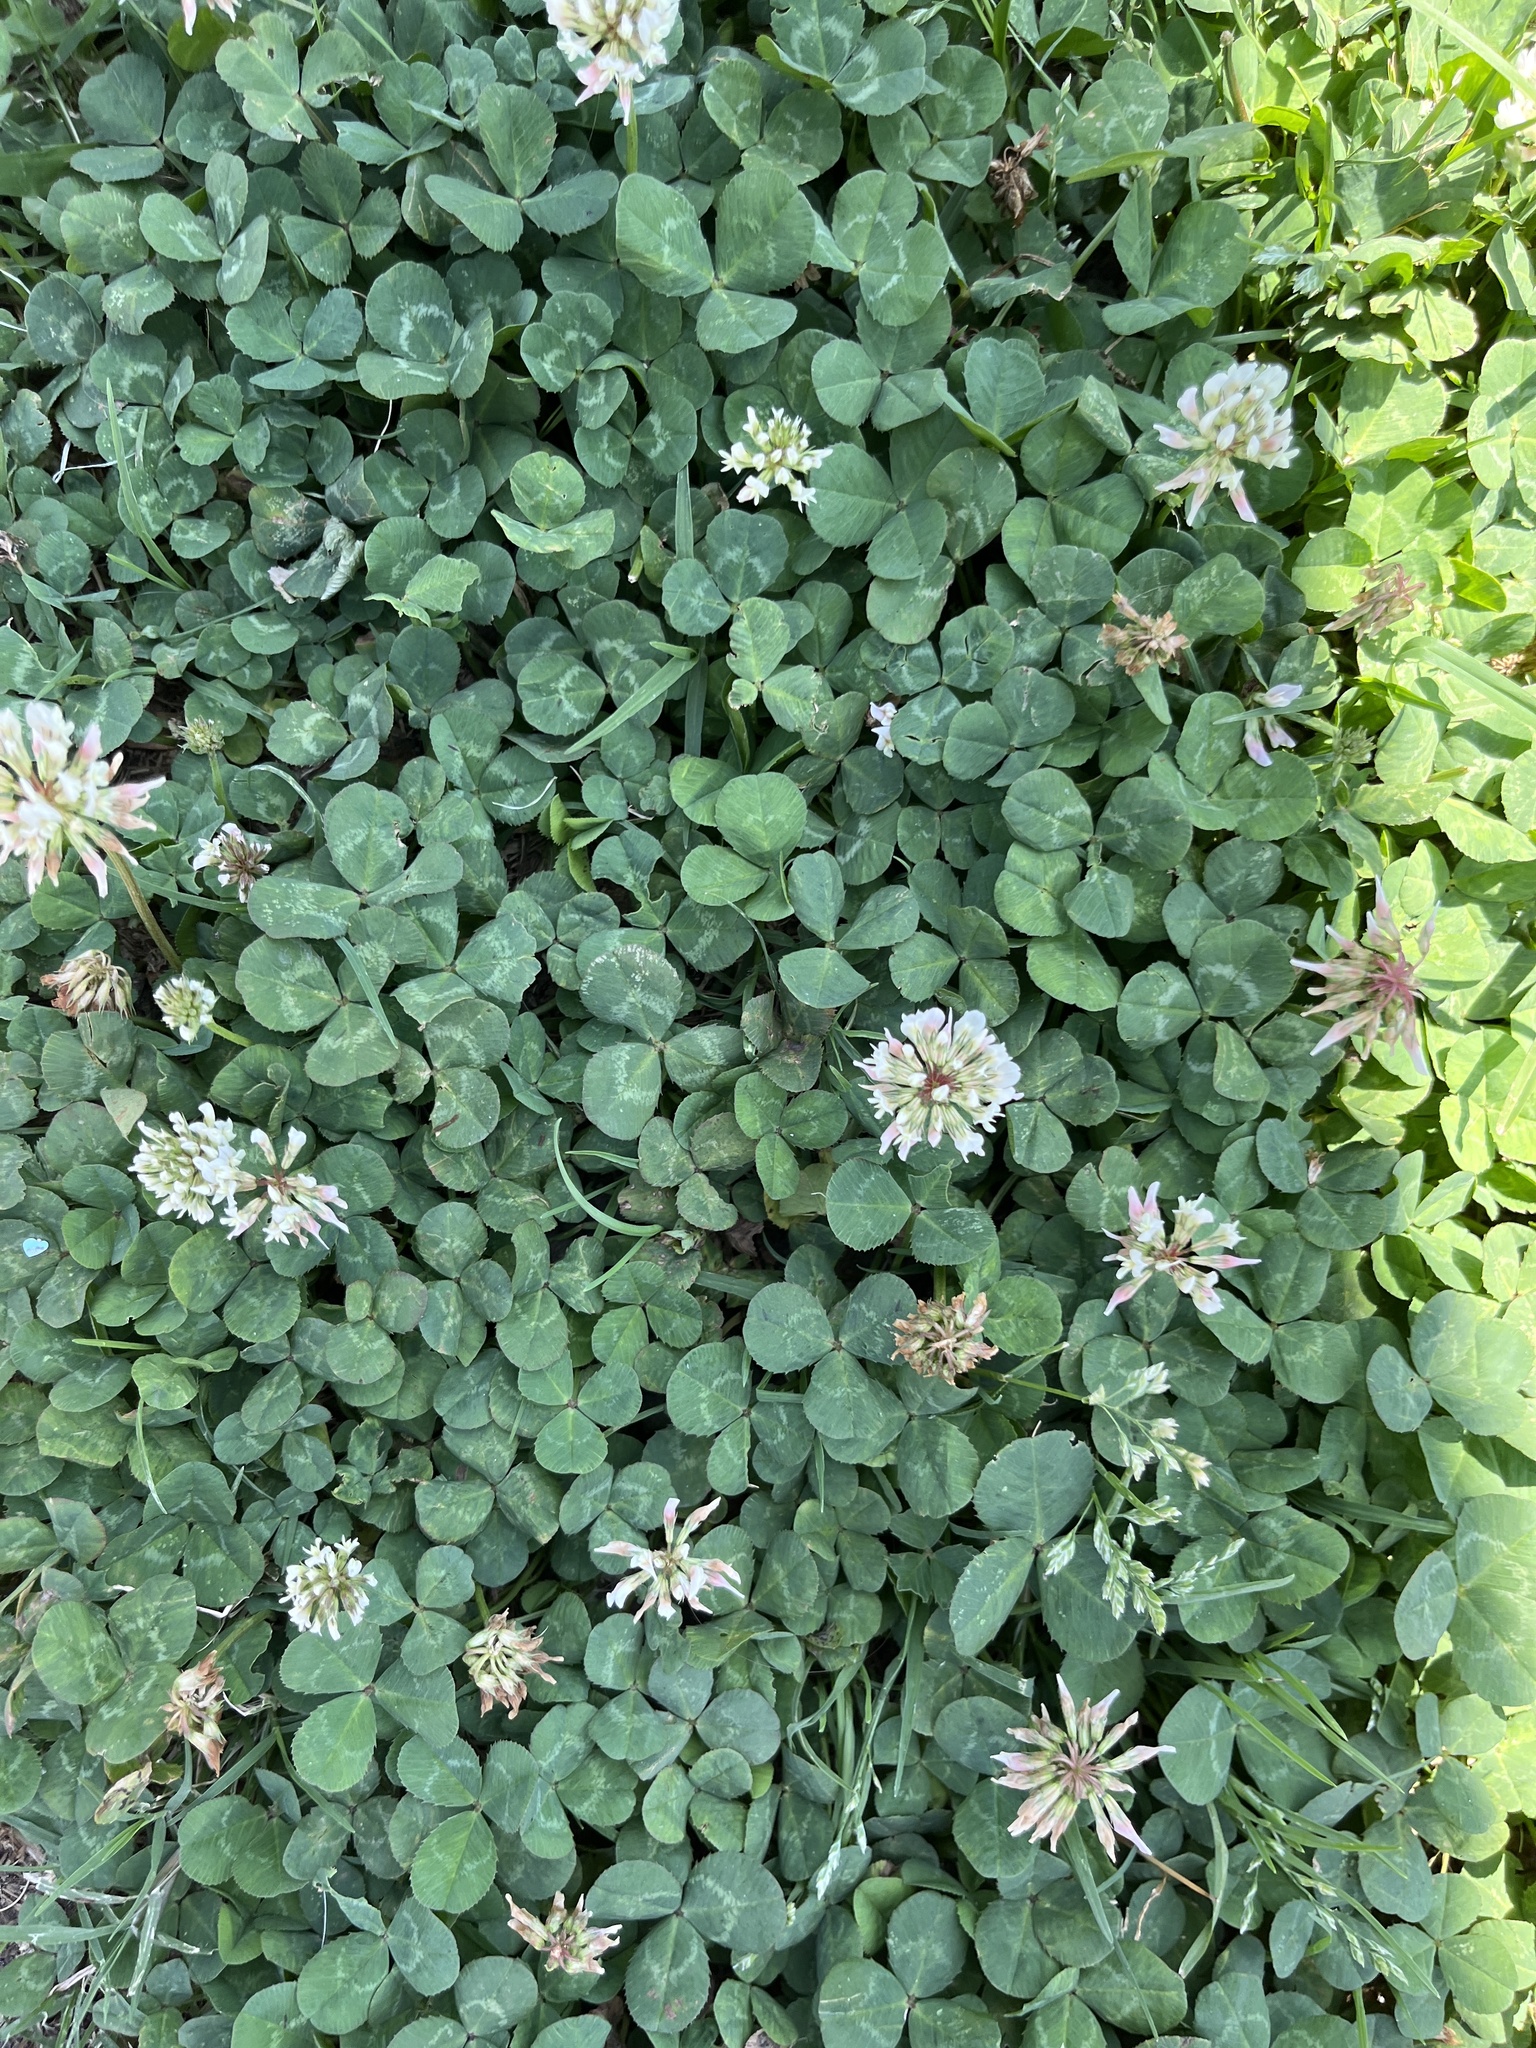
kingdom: Plantae
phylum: Tracheophyta
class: Magnoliopsida
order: Fabales
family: Fabaceae
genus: Trifolium
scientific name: Trifolium repens
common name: White clover
